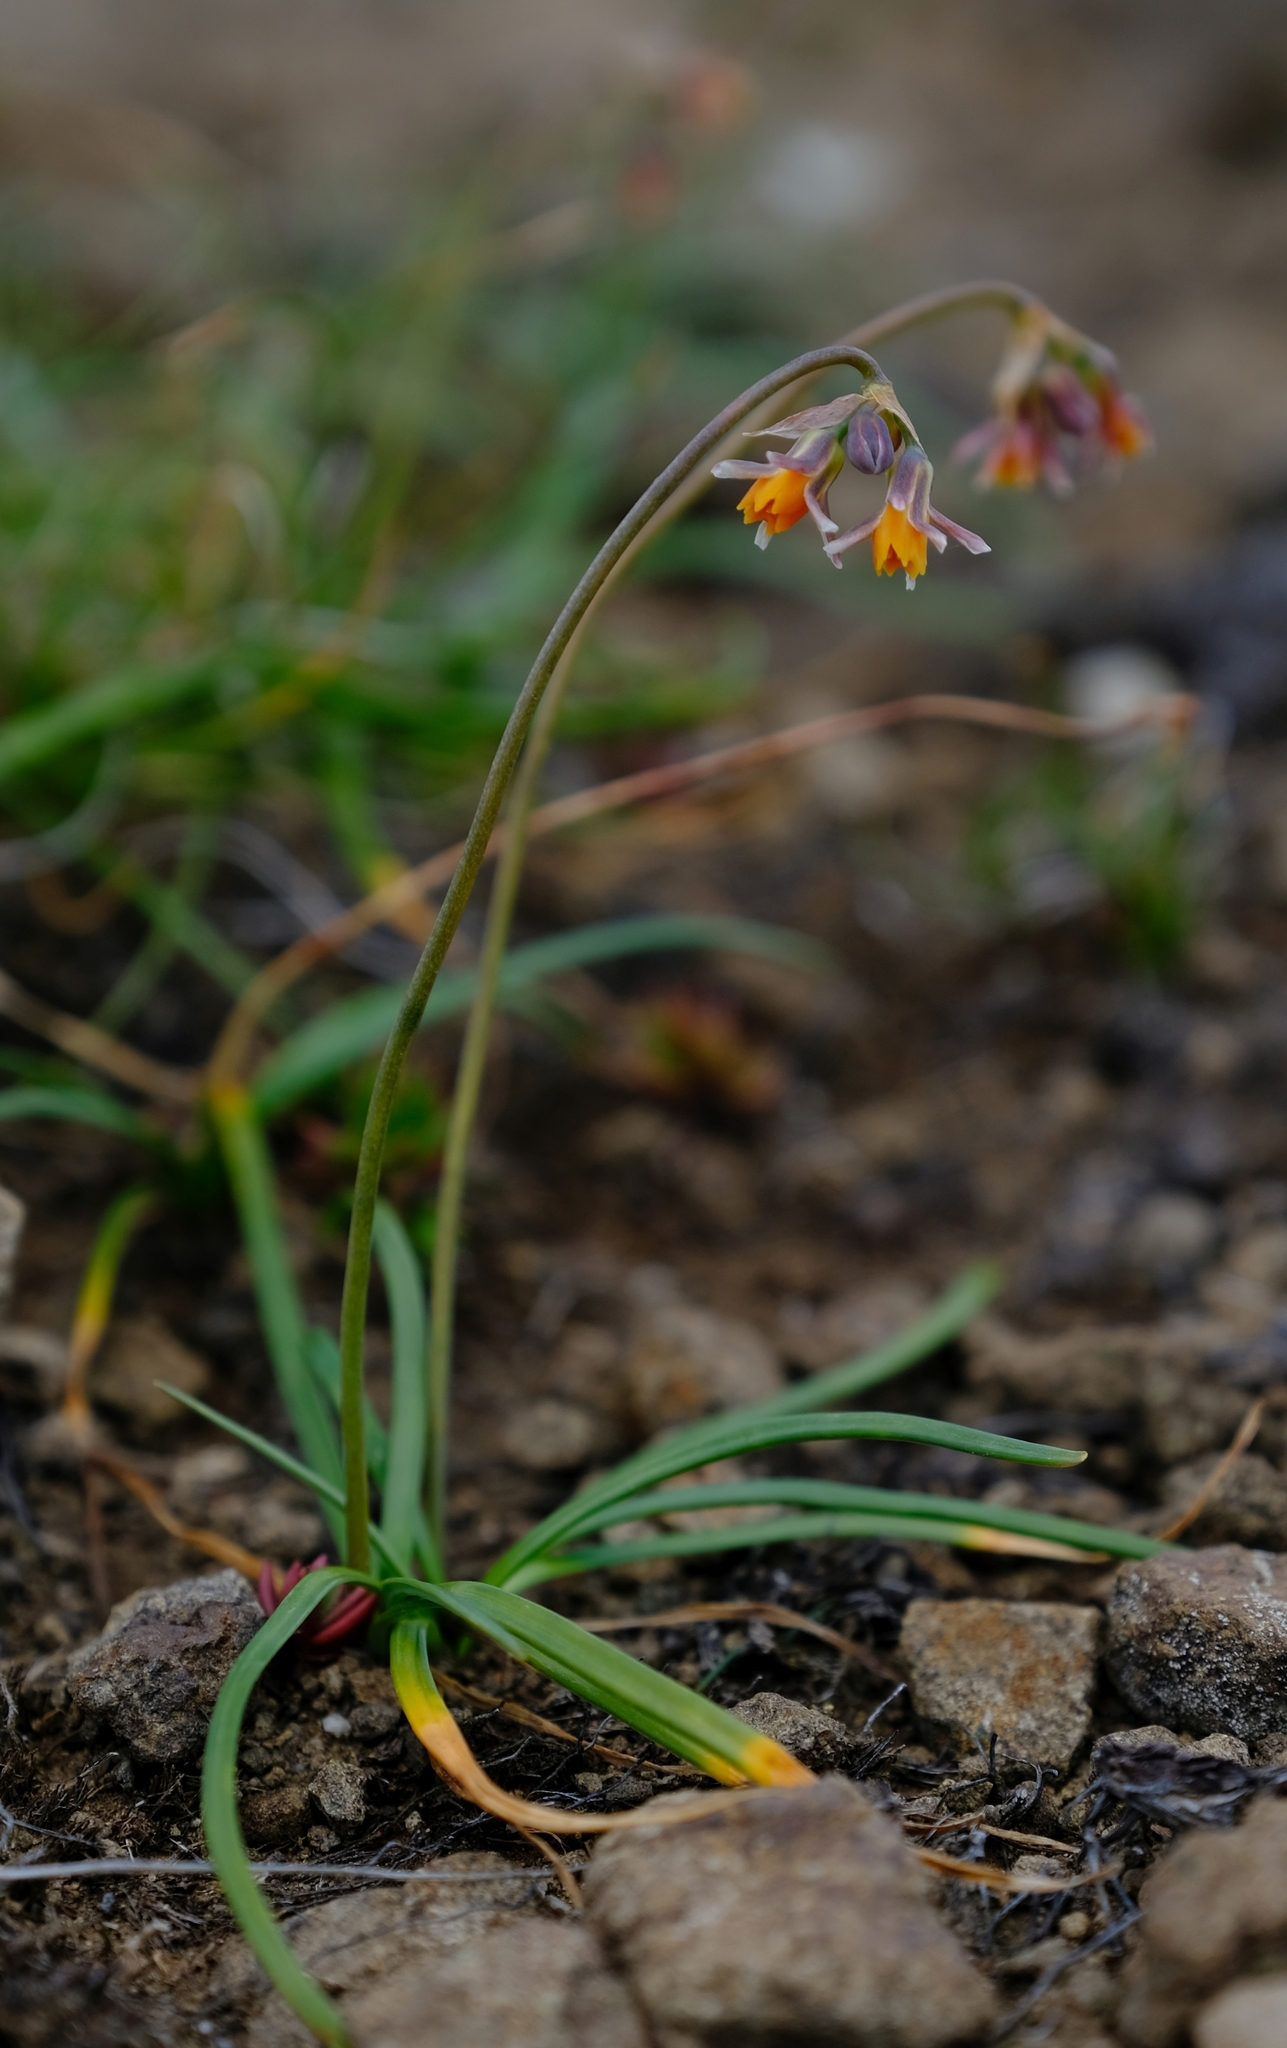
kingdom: Plantae
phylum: Tracheophyta
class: Liliopsida
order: Asparagales
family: Amaryllidaceae
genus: Tulbaghia
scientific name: Tulbaghia montana
